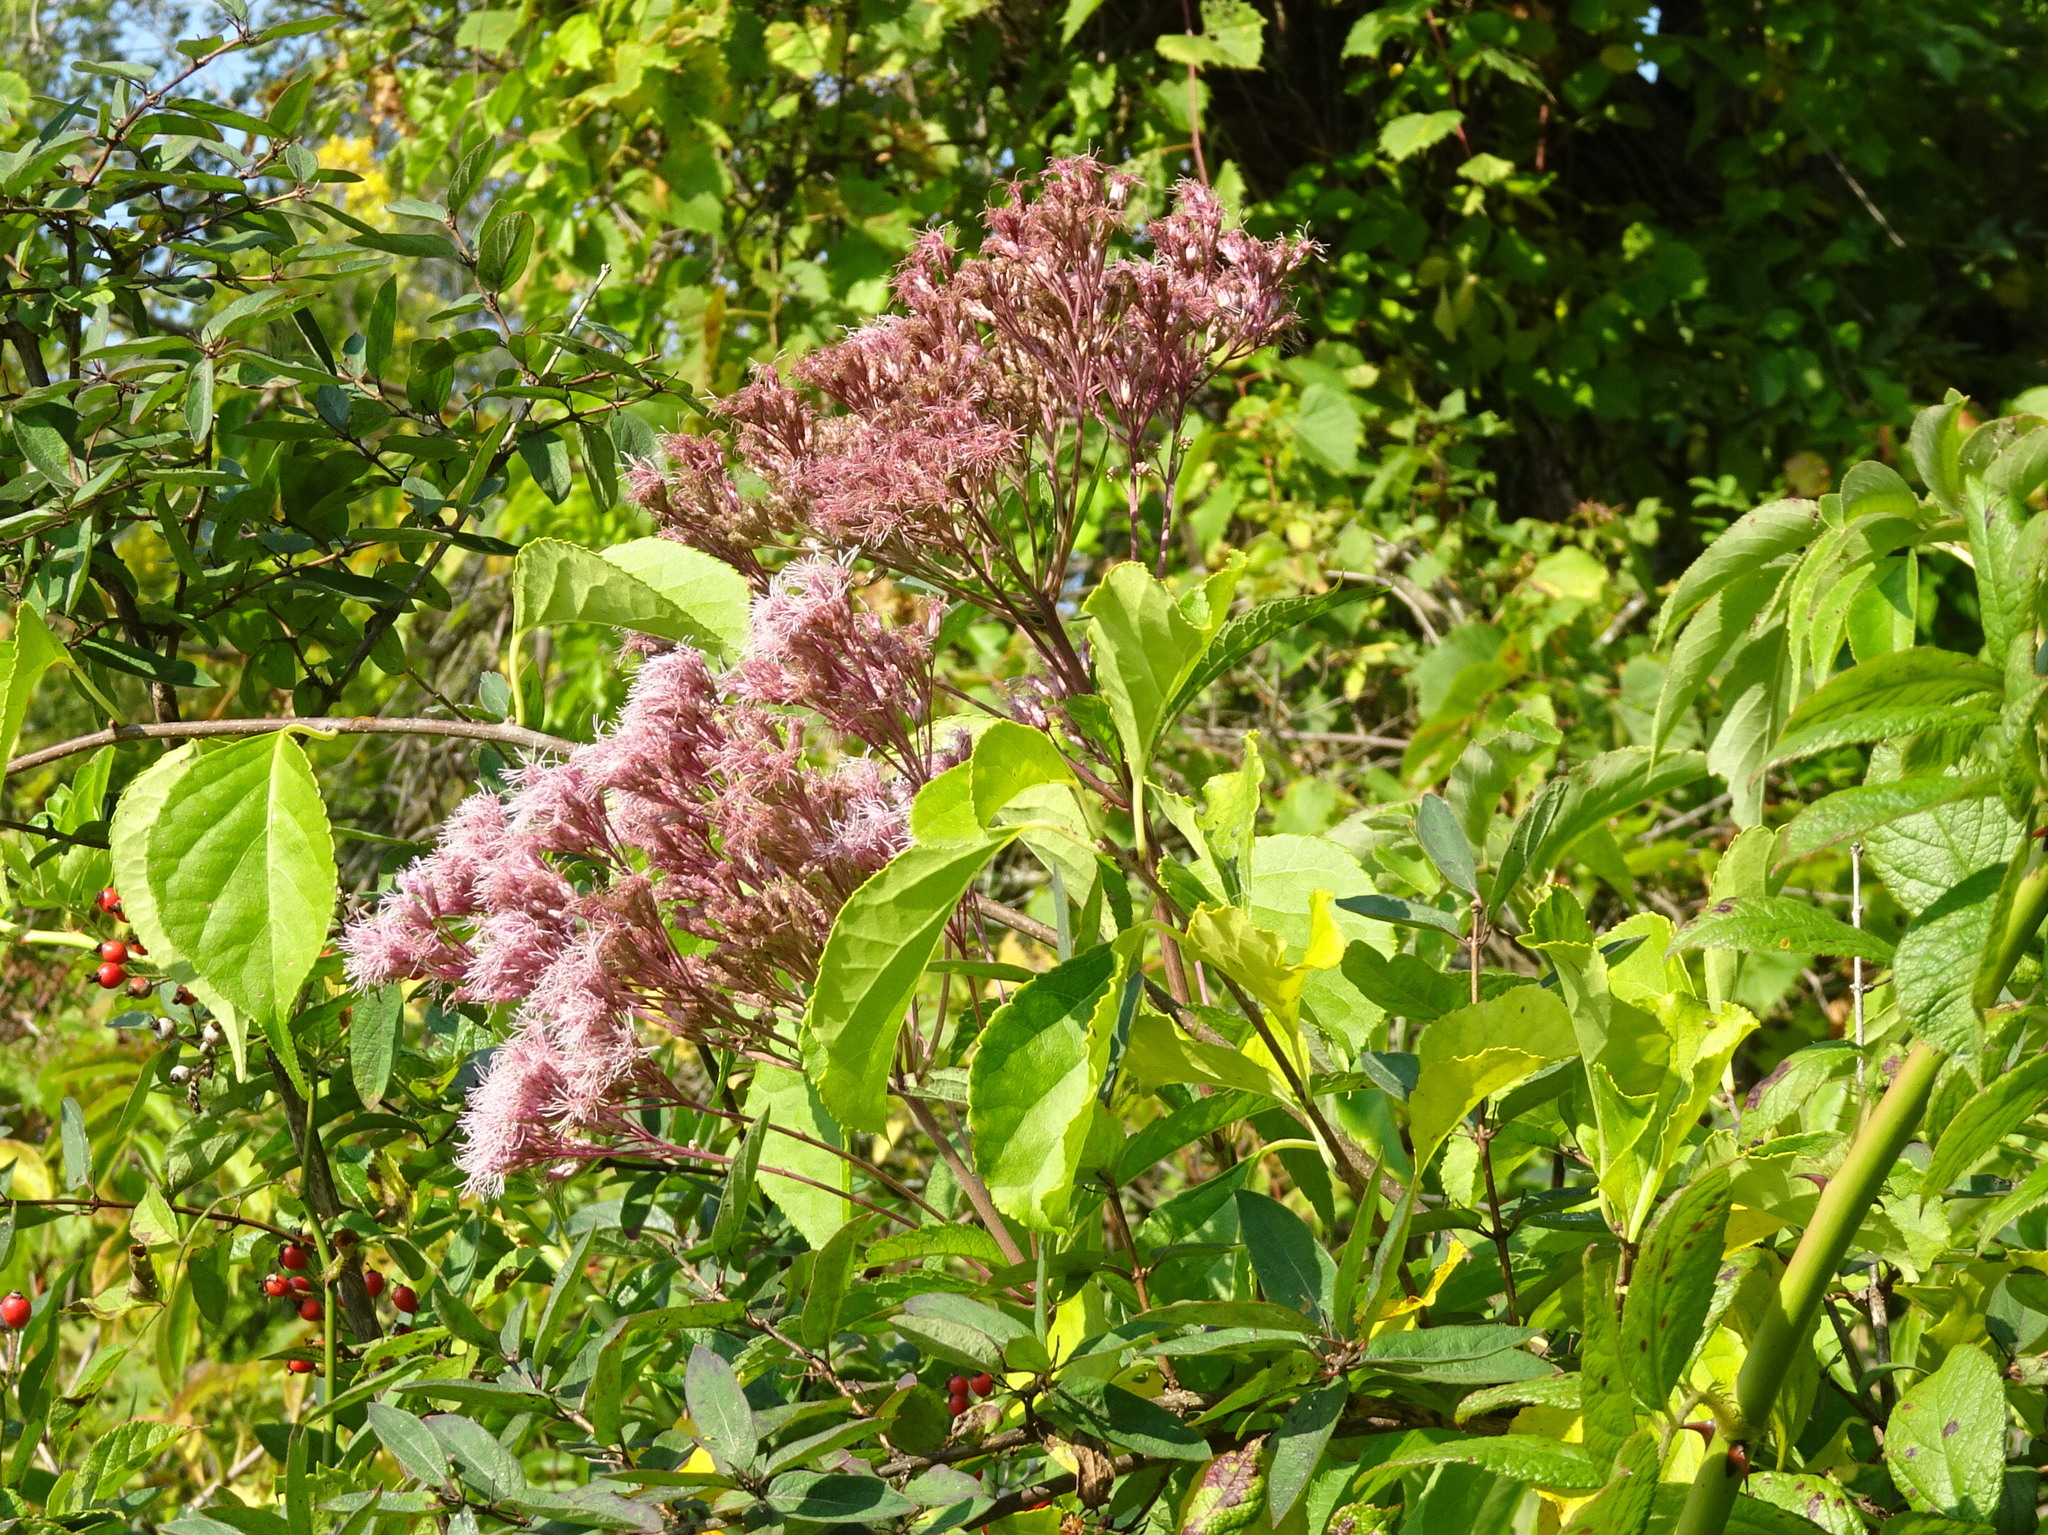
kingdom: Plantae
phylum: Tracheophyta
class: Magnoliopsida
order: Asterales
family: Asteraceae
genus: Eutrochium
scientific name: Eutrochium maculatum
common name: Spotted joe pye weed
